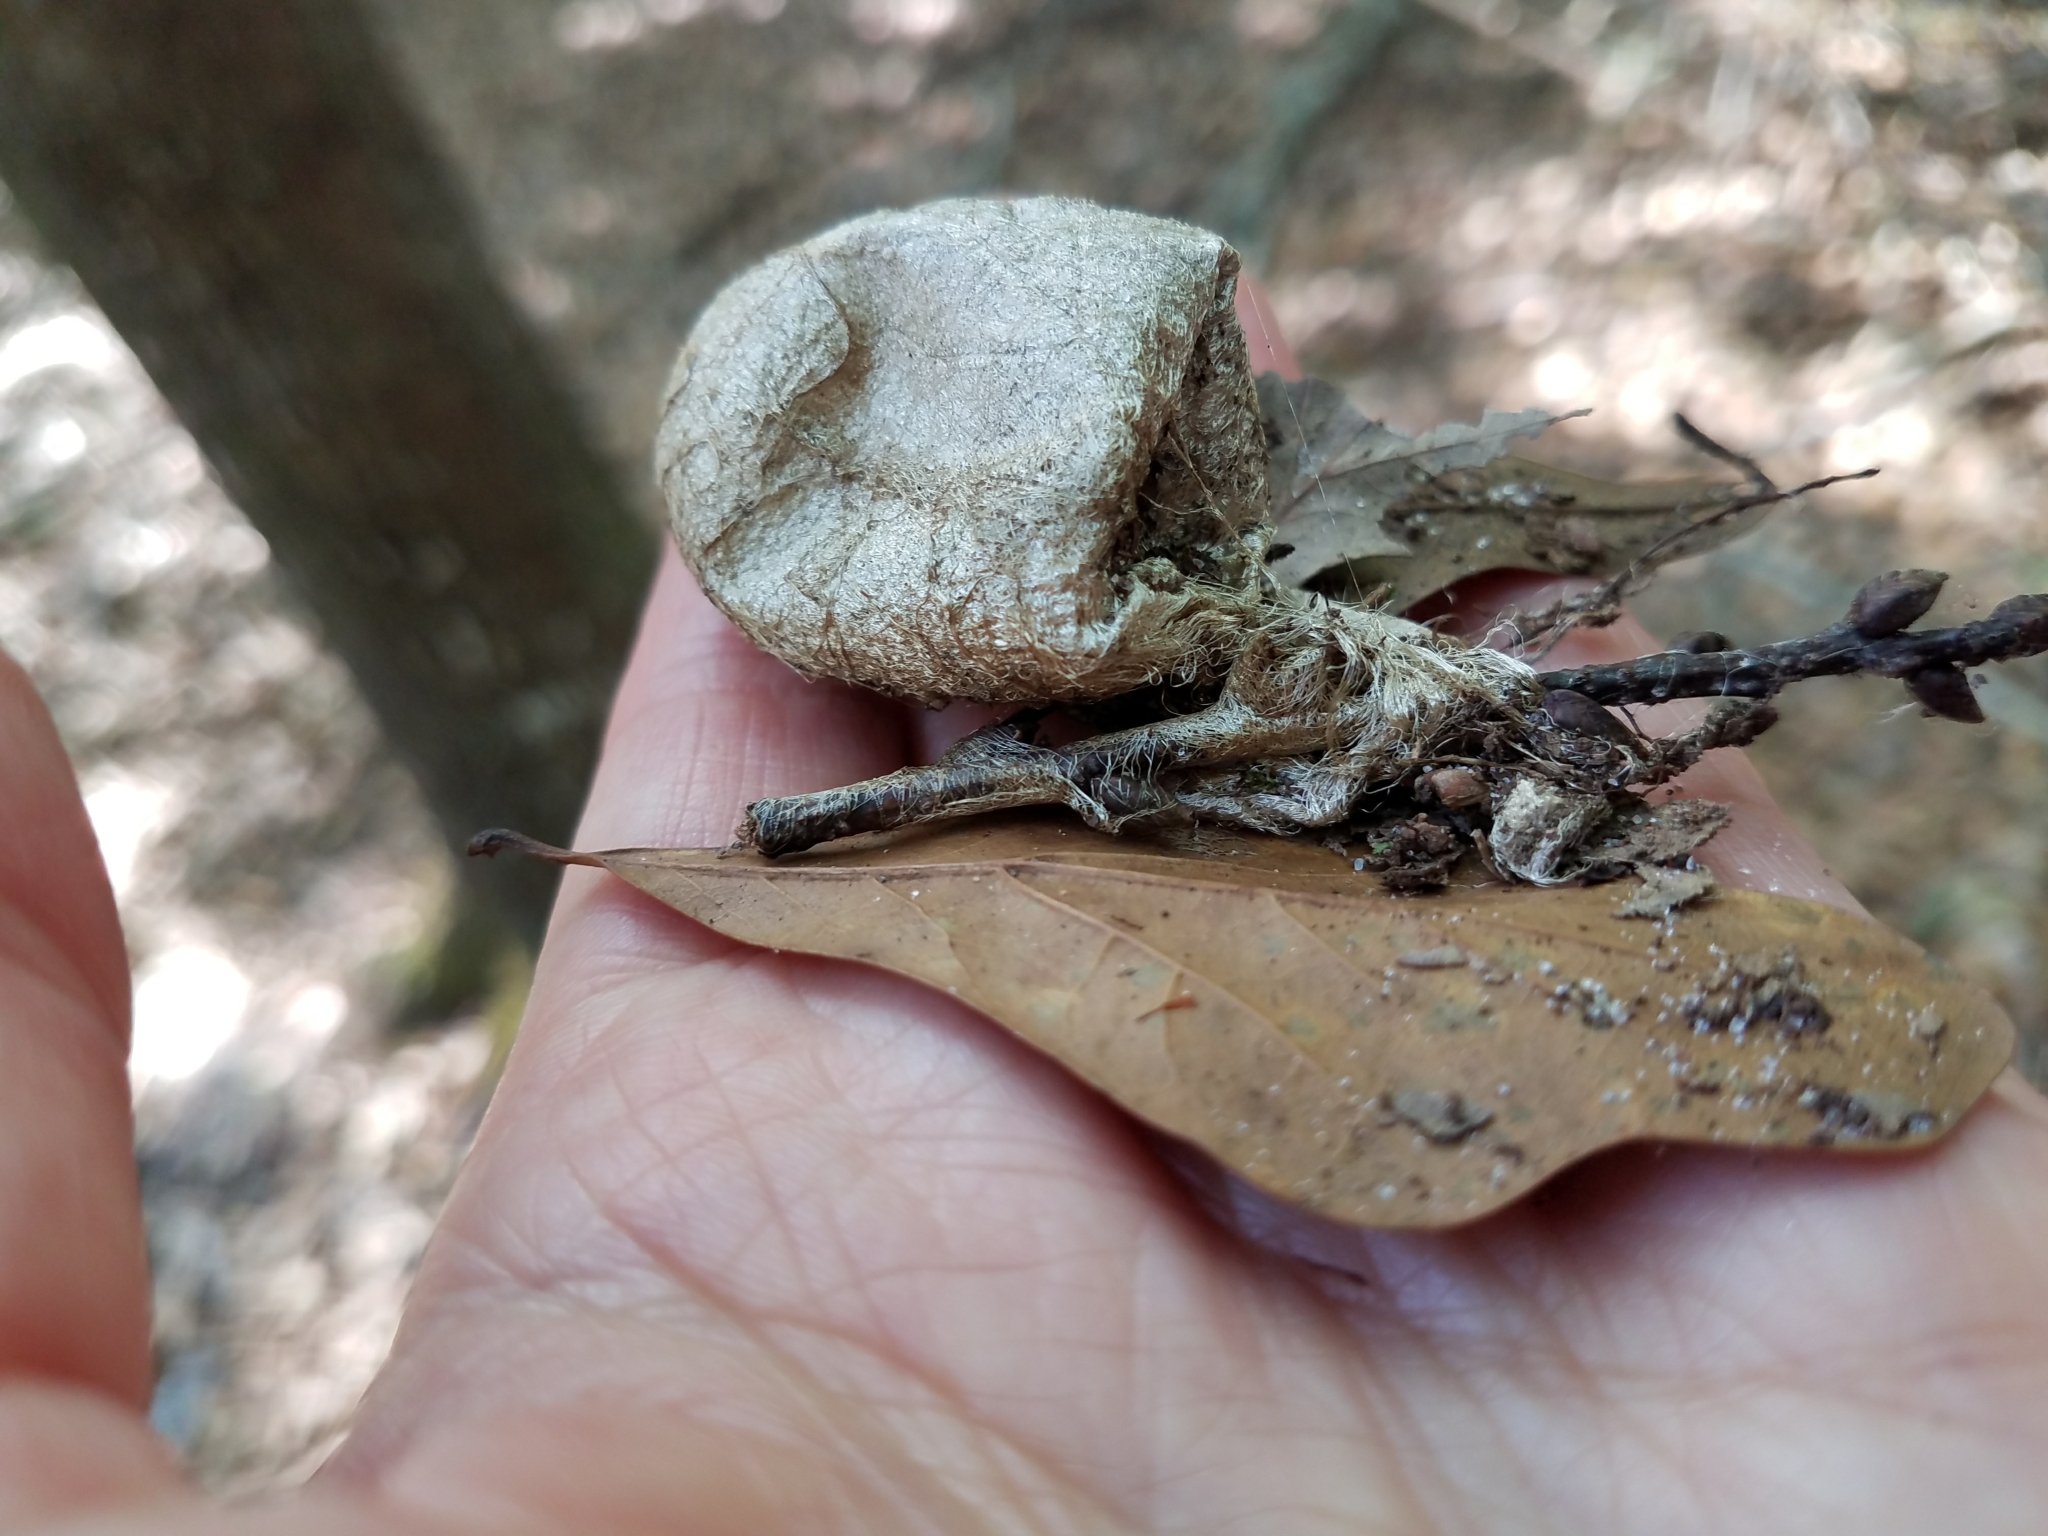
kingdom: Animalia
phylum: Arthropoda
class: Insecta
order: Lepidoptera
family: Saturniidae
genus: Antheraea
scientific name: Antheraea polyphemus
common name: Polyphemus moth
